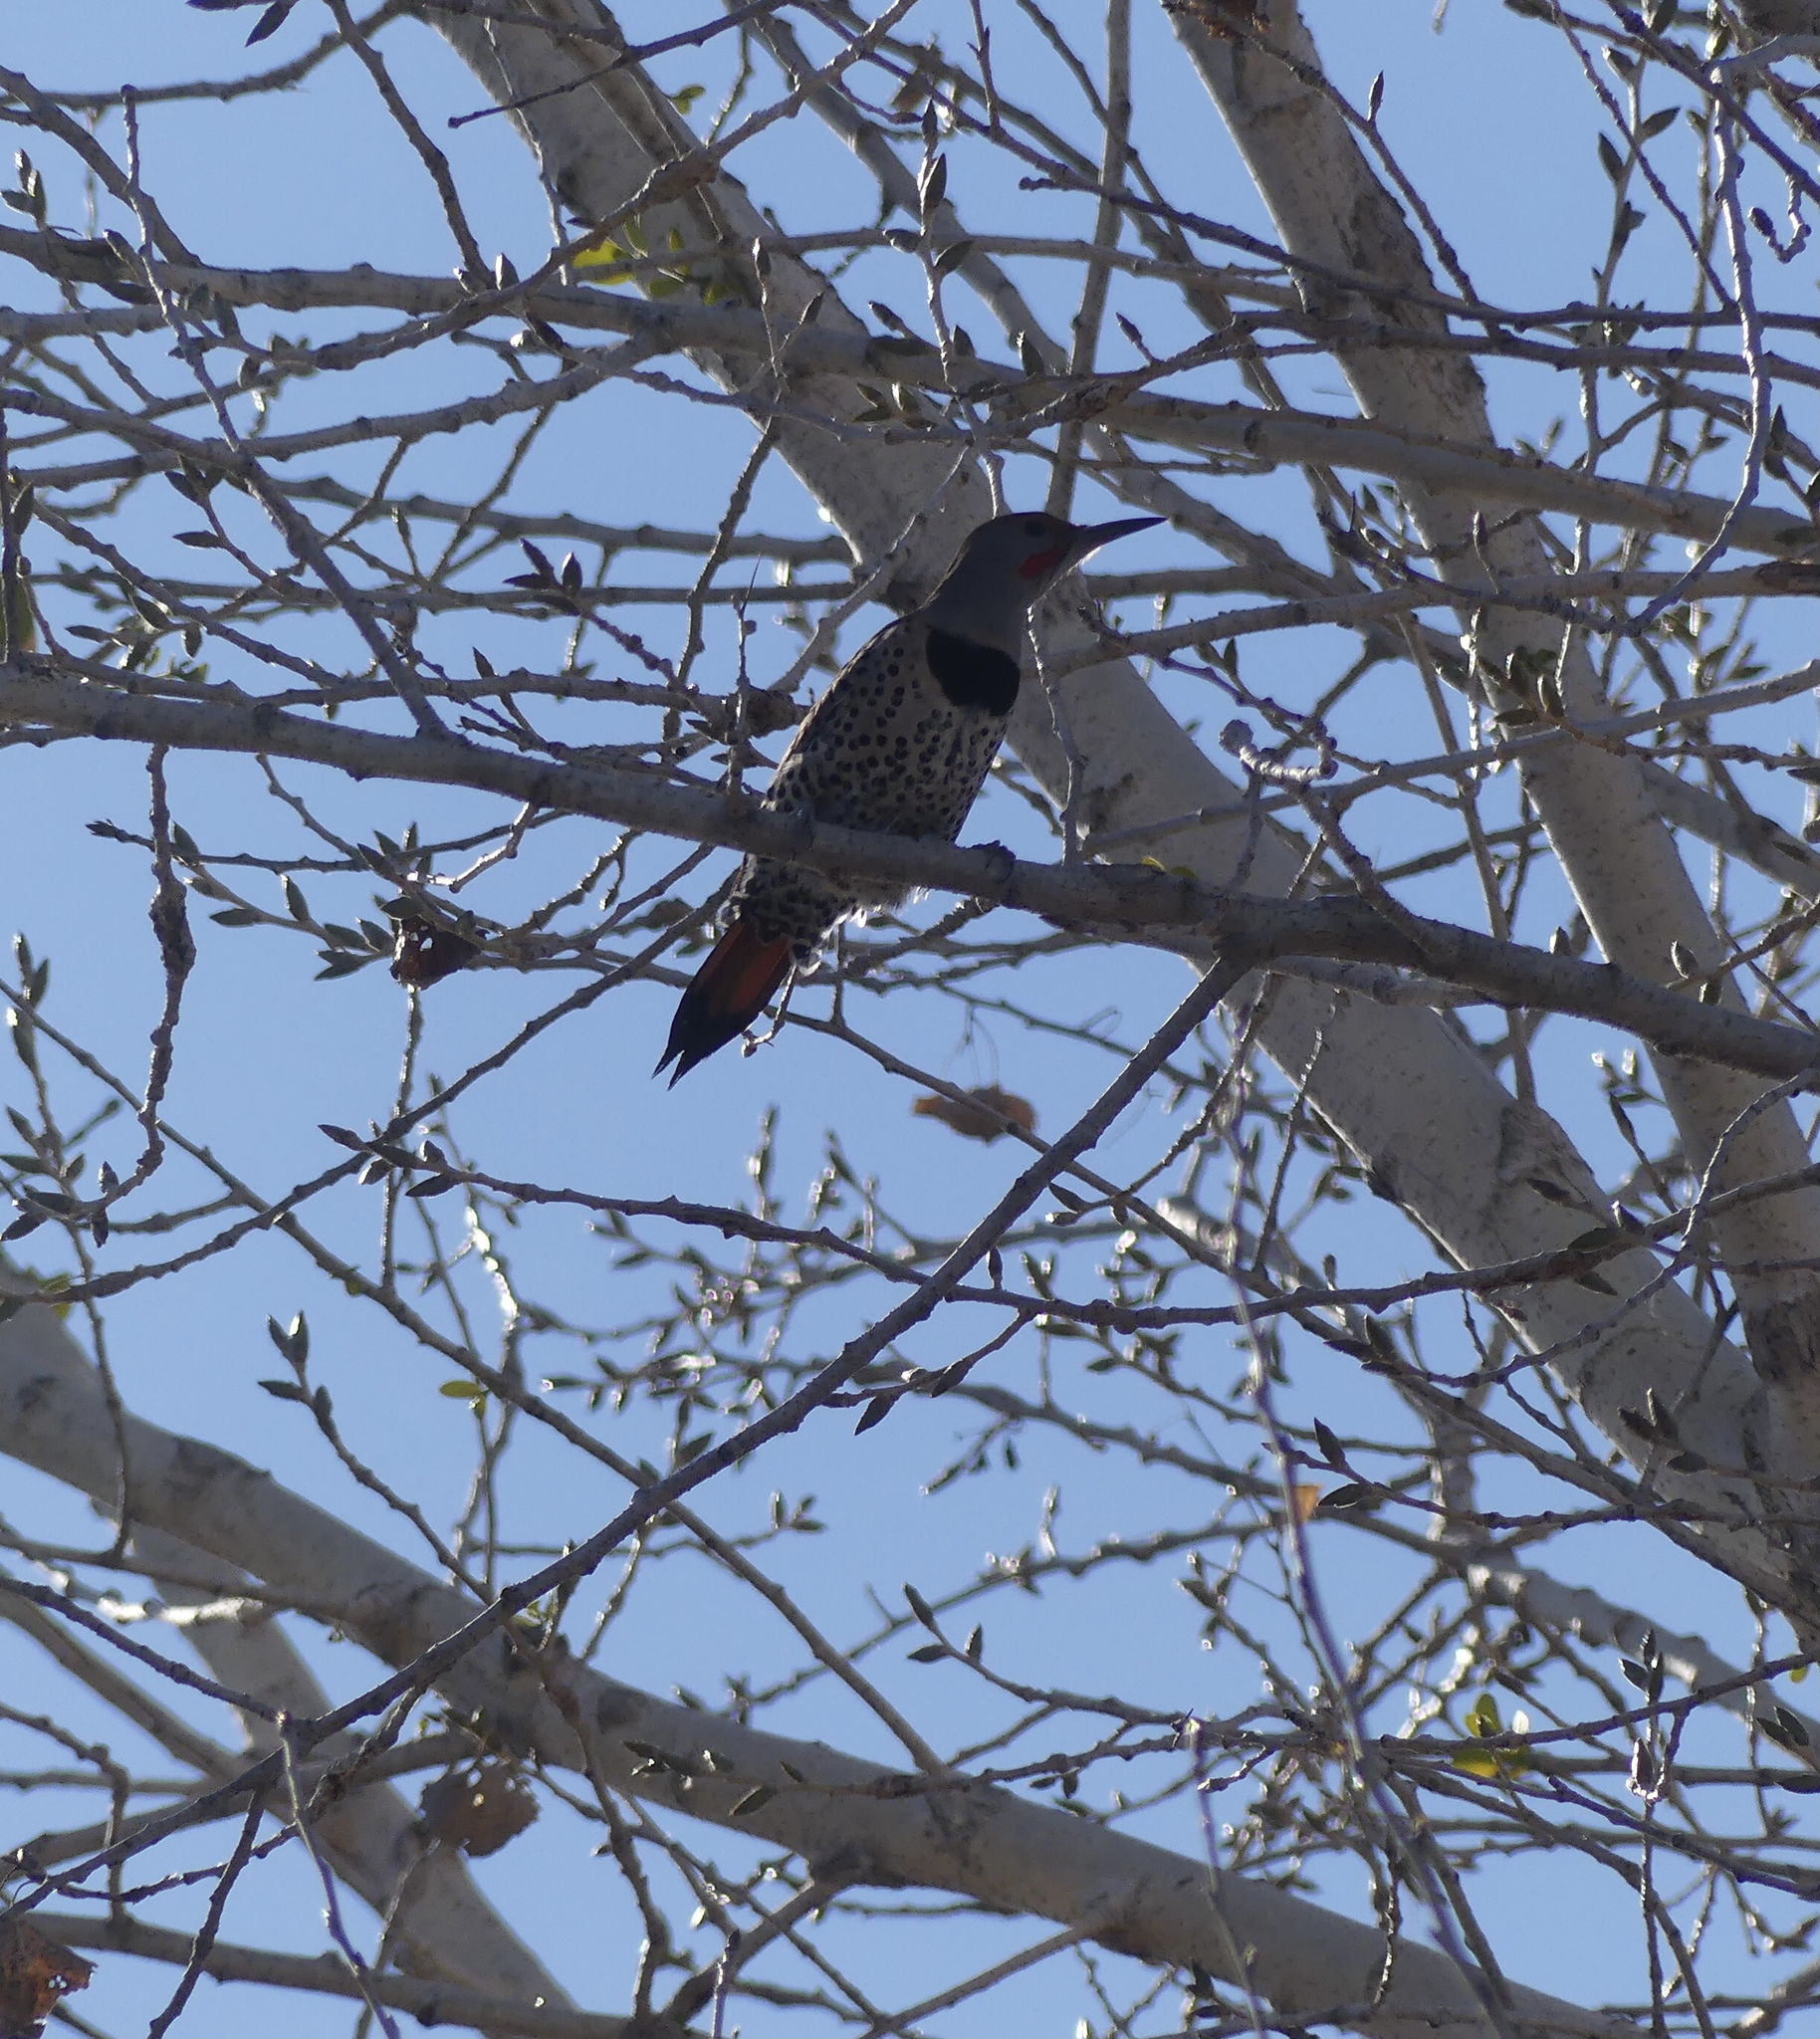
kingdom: Animalia
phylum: Chordata
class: Aves
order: Piciformes
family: Picidae
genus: Colaptes
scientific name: Colaptes auratus
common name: Northern flicker
